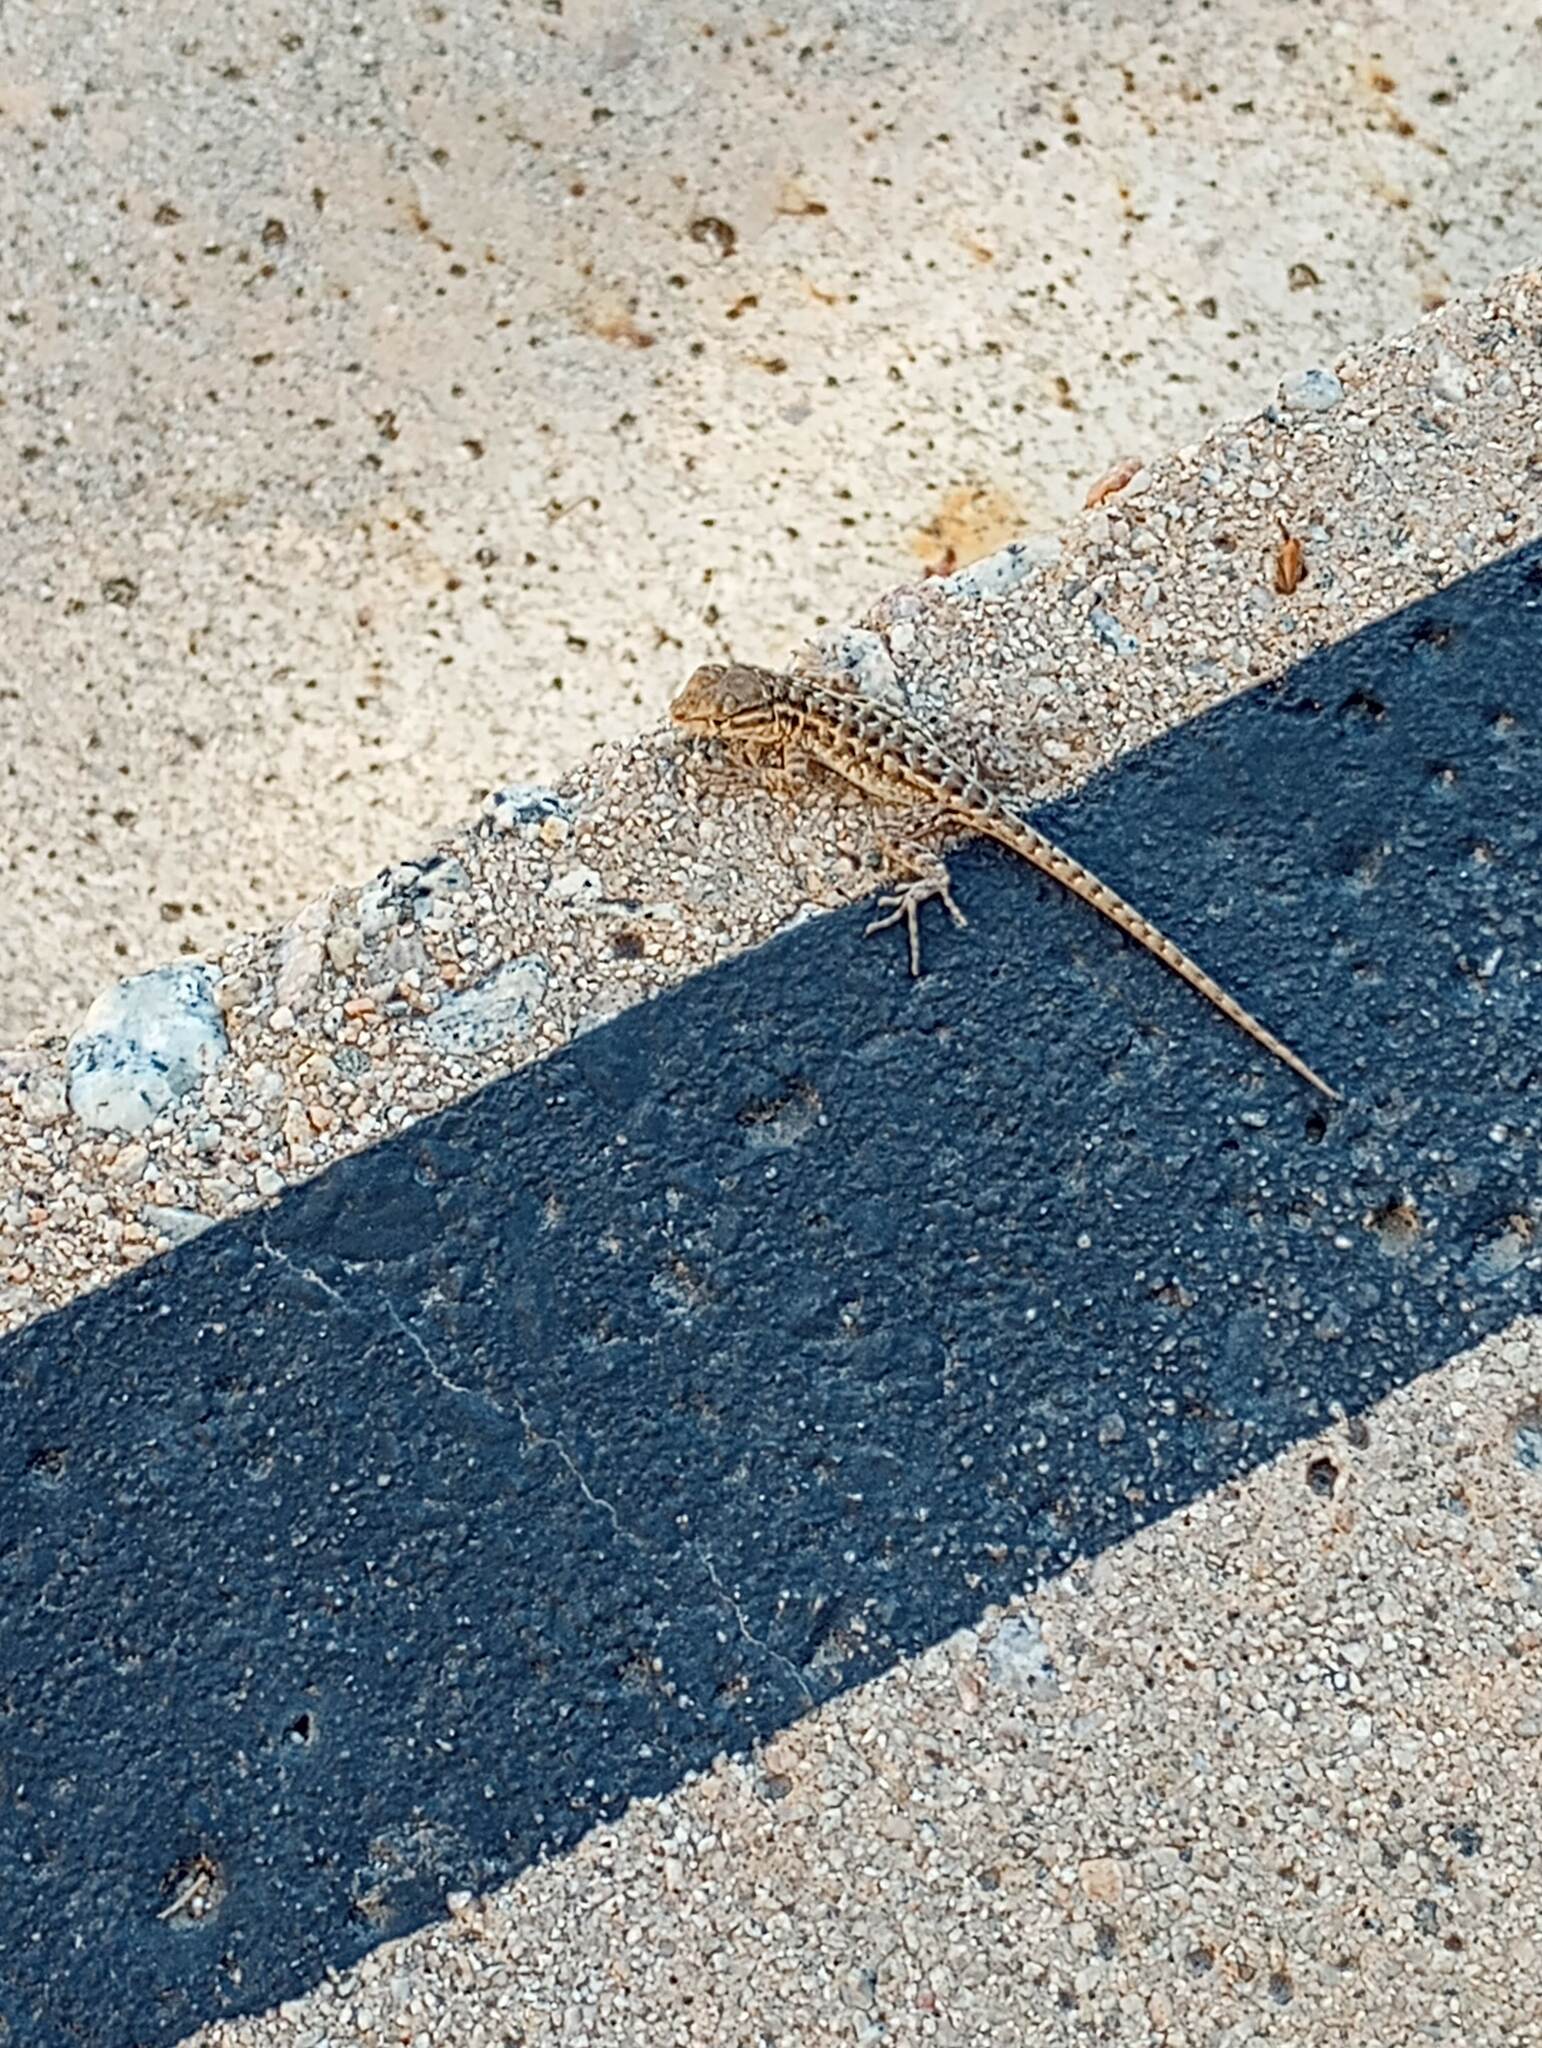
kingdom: Animalia
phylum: Chordata
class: Squamata
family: Phrynosomatidae
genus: Uta
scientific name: Uta stansburiana
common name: Side-blotched lizard
